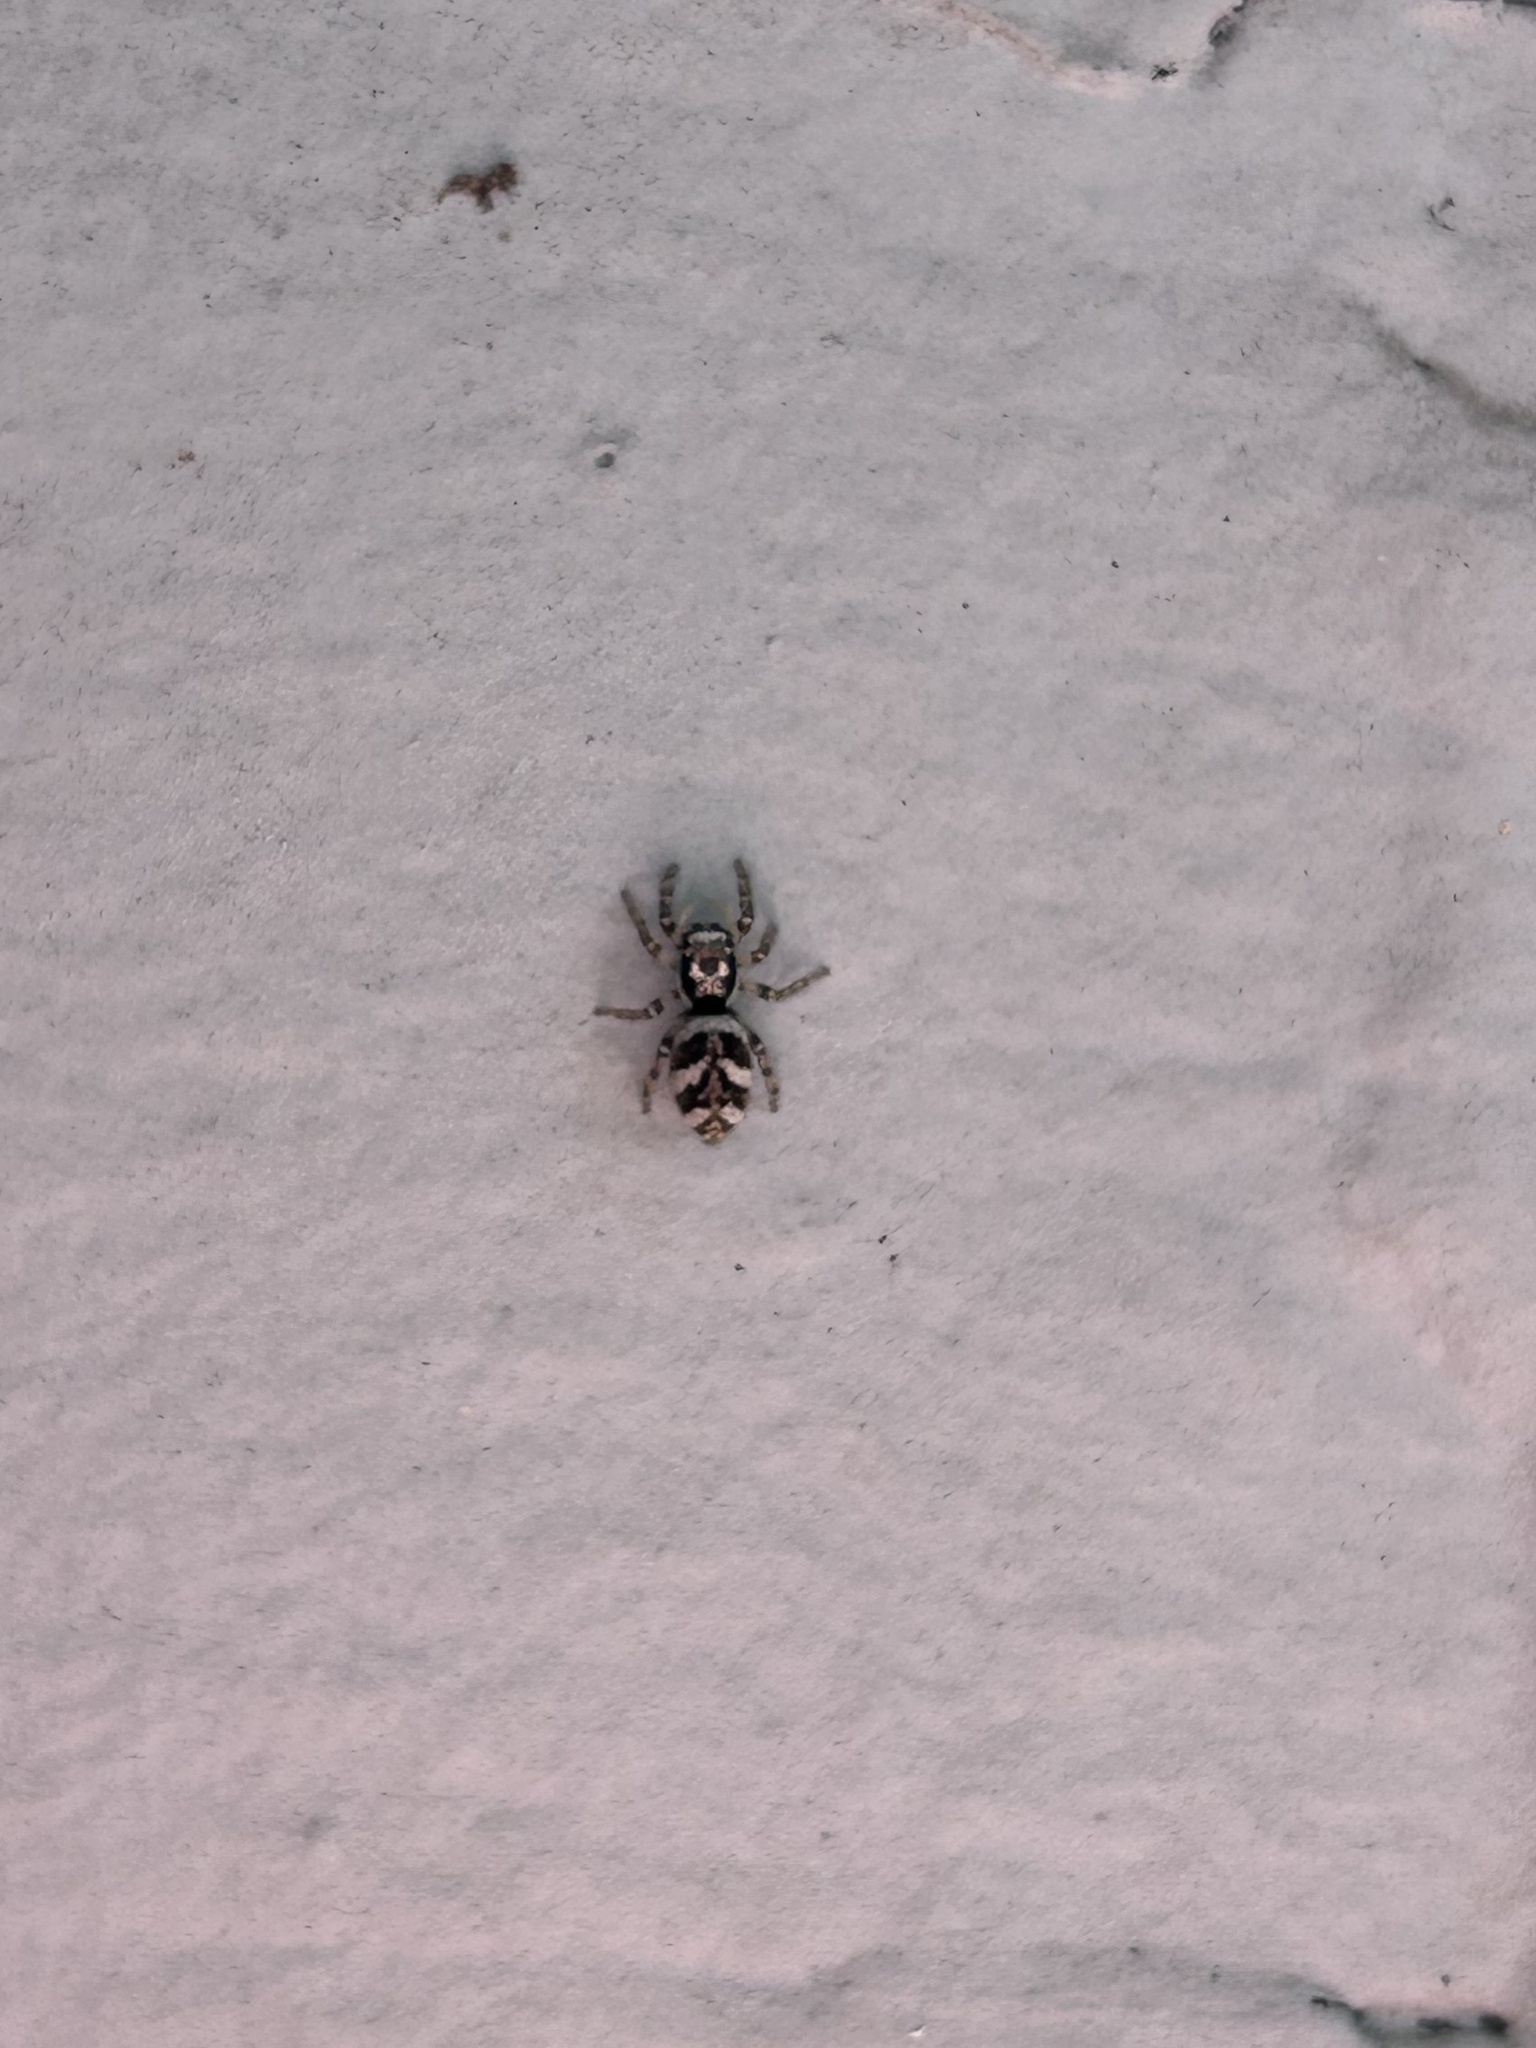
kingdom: Animalia
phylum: Arthropoda
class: Arachnida
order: Araneae
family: Salticidae
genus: Salticus
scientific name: Salticus scenicus
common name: Zebra jumper
